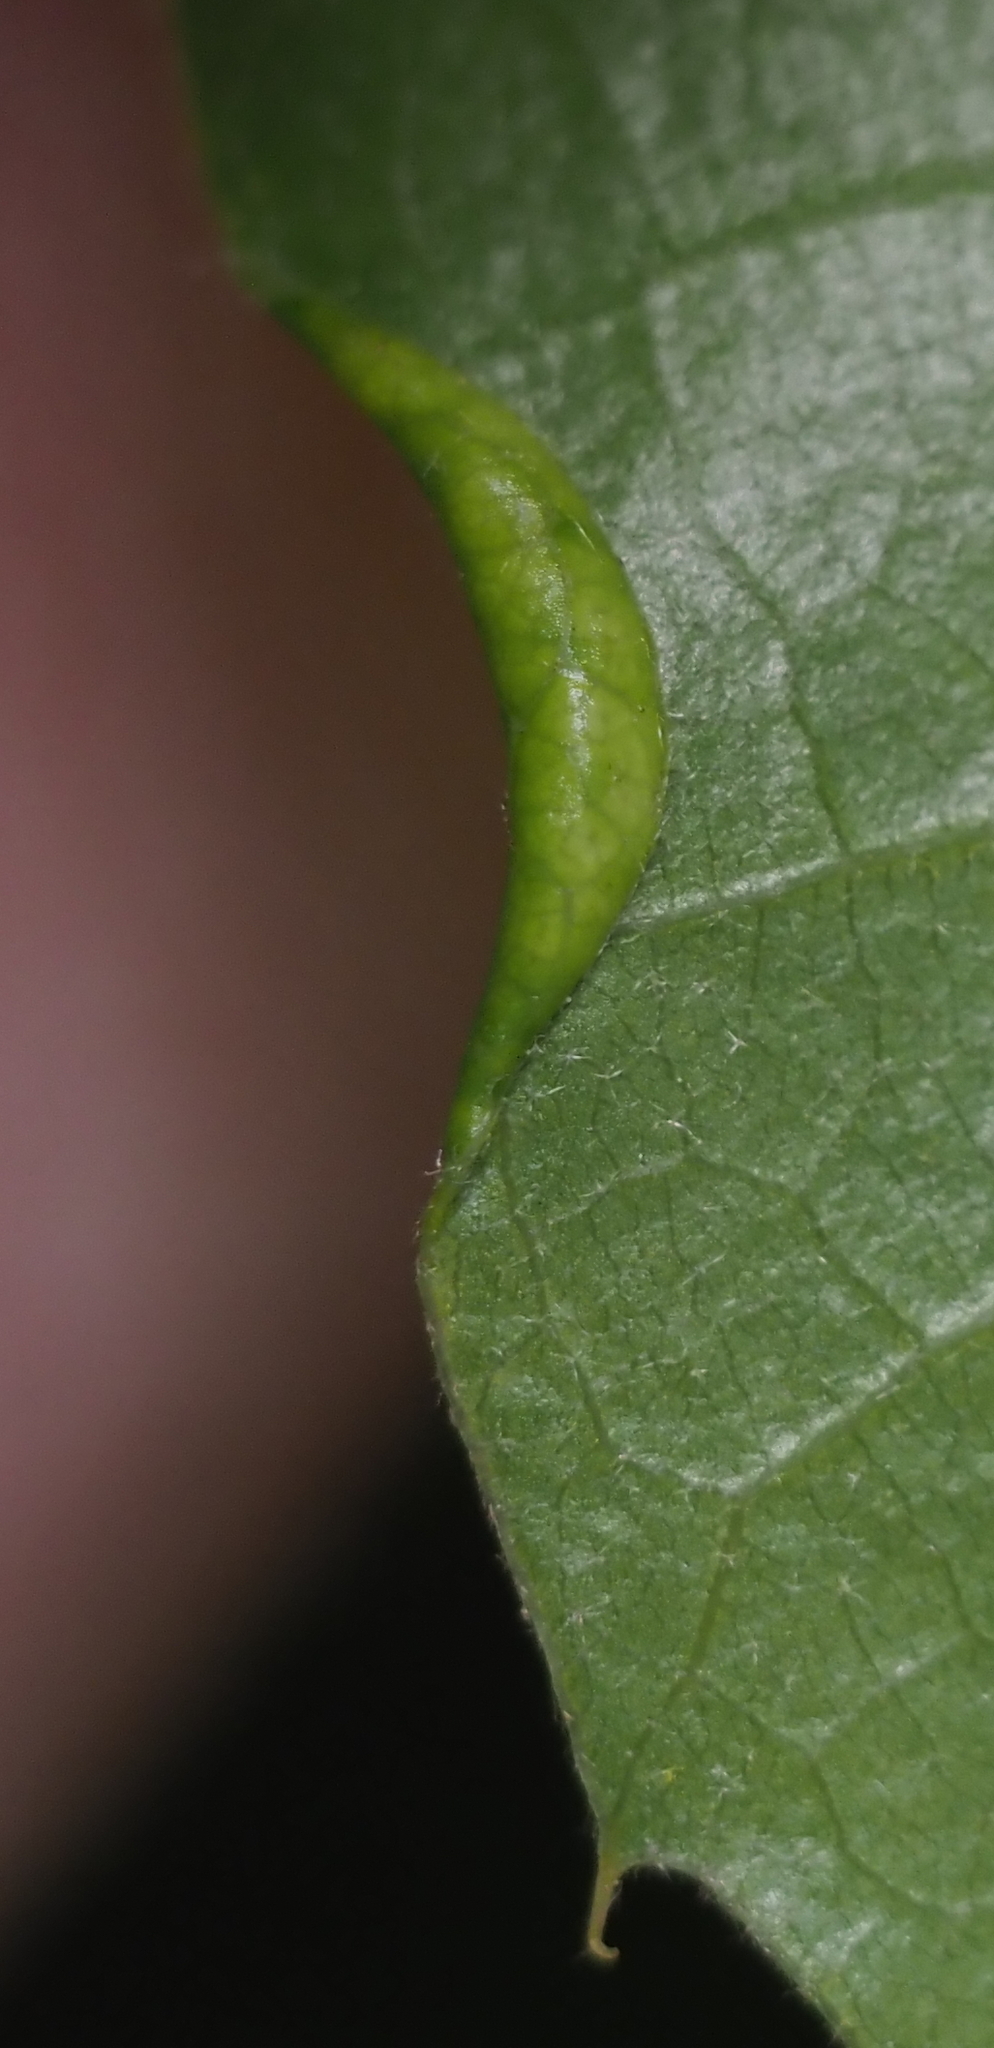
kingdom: Animalia
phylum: Arthropoda
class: Insecta
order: Diptera
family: Cecidomyiidae
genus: Macrodiplosis
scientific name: Macrodiplosis erubescens
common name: Marginal leaf fold gall midge
